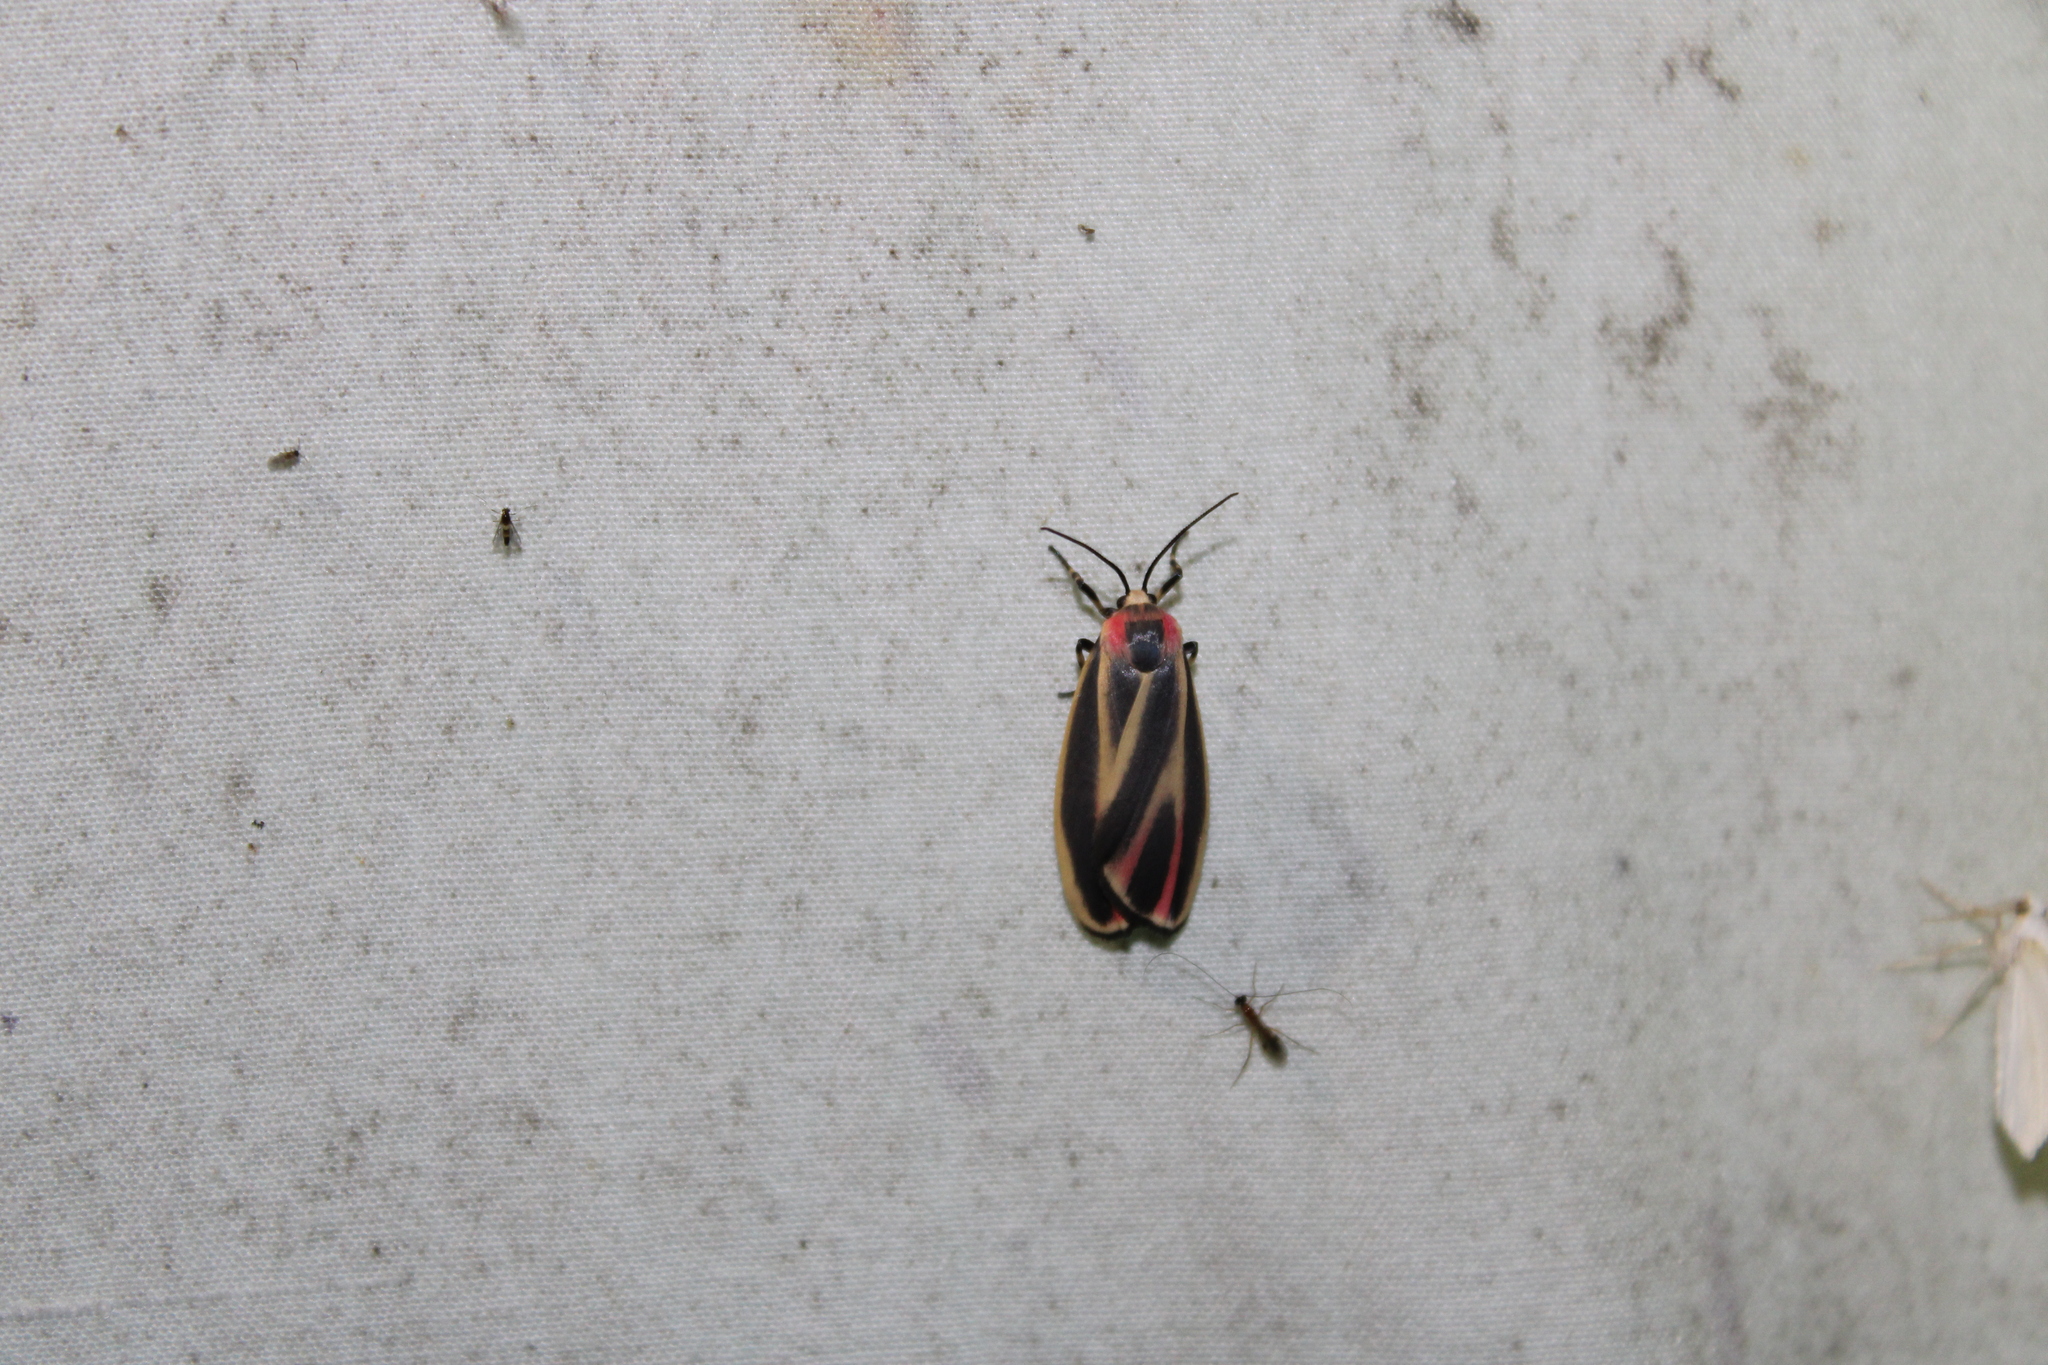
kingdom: Animalia
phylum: Arthropoda
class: Insecta
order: Lepidoptera
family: Erebidae
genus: Hypoprepia
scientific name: Hypoprepia fucosa
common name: Painted lichen moth
